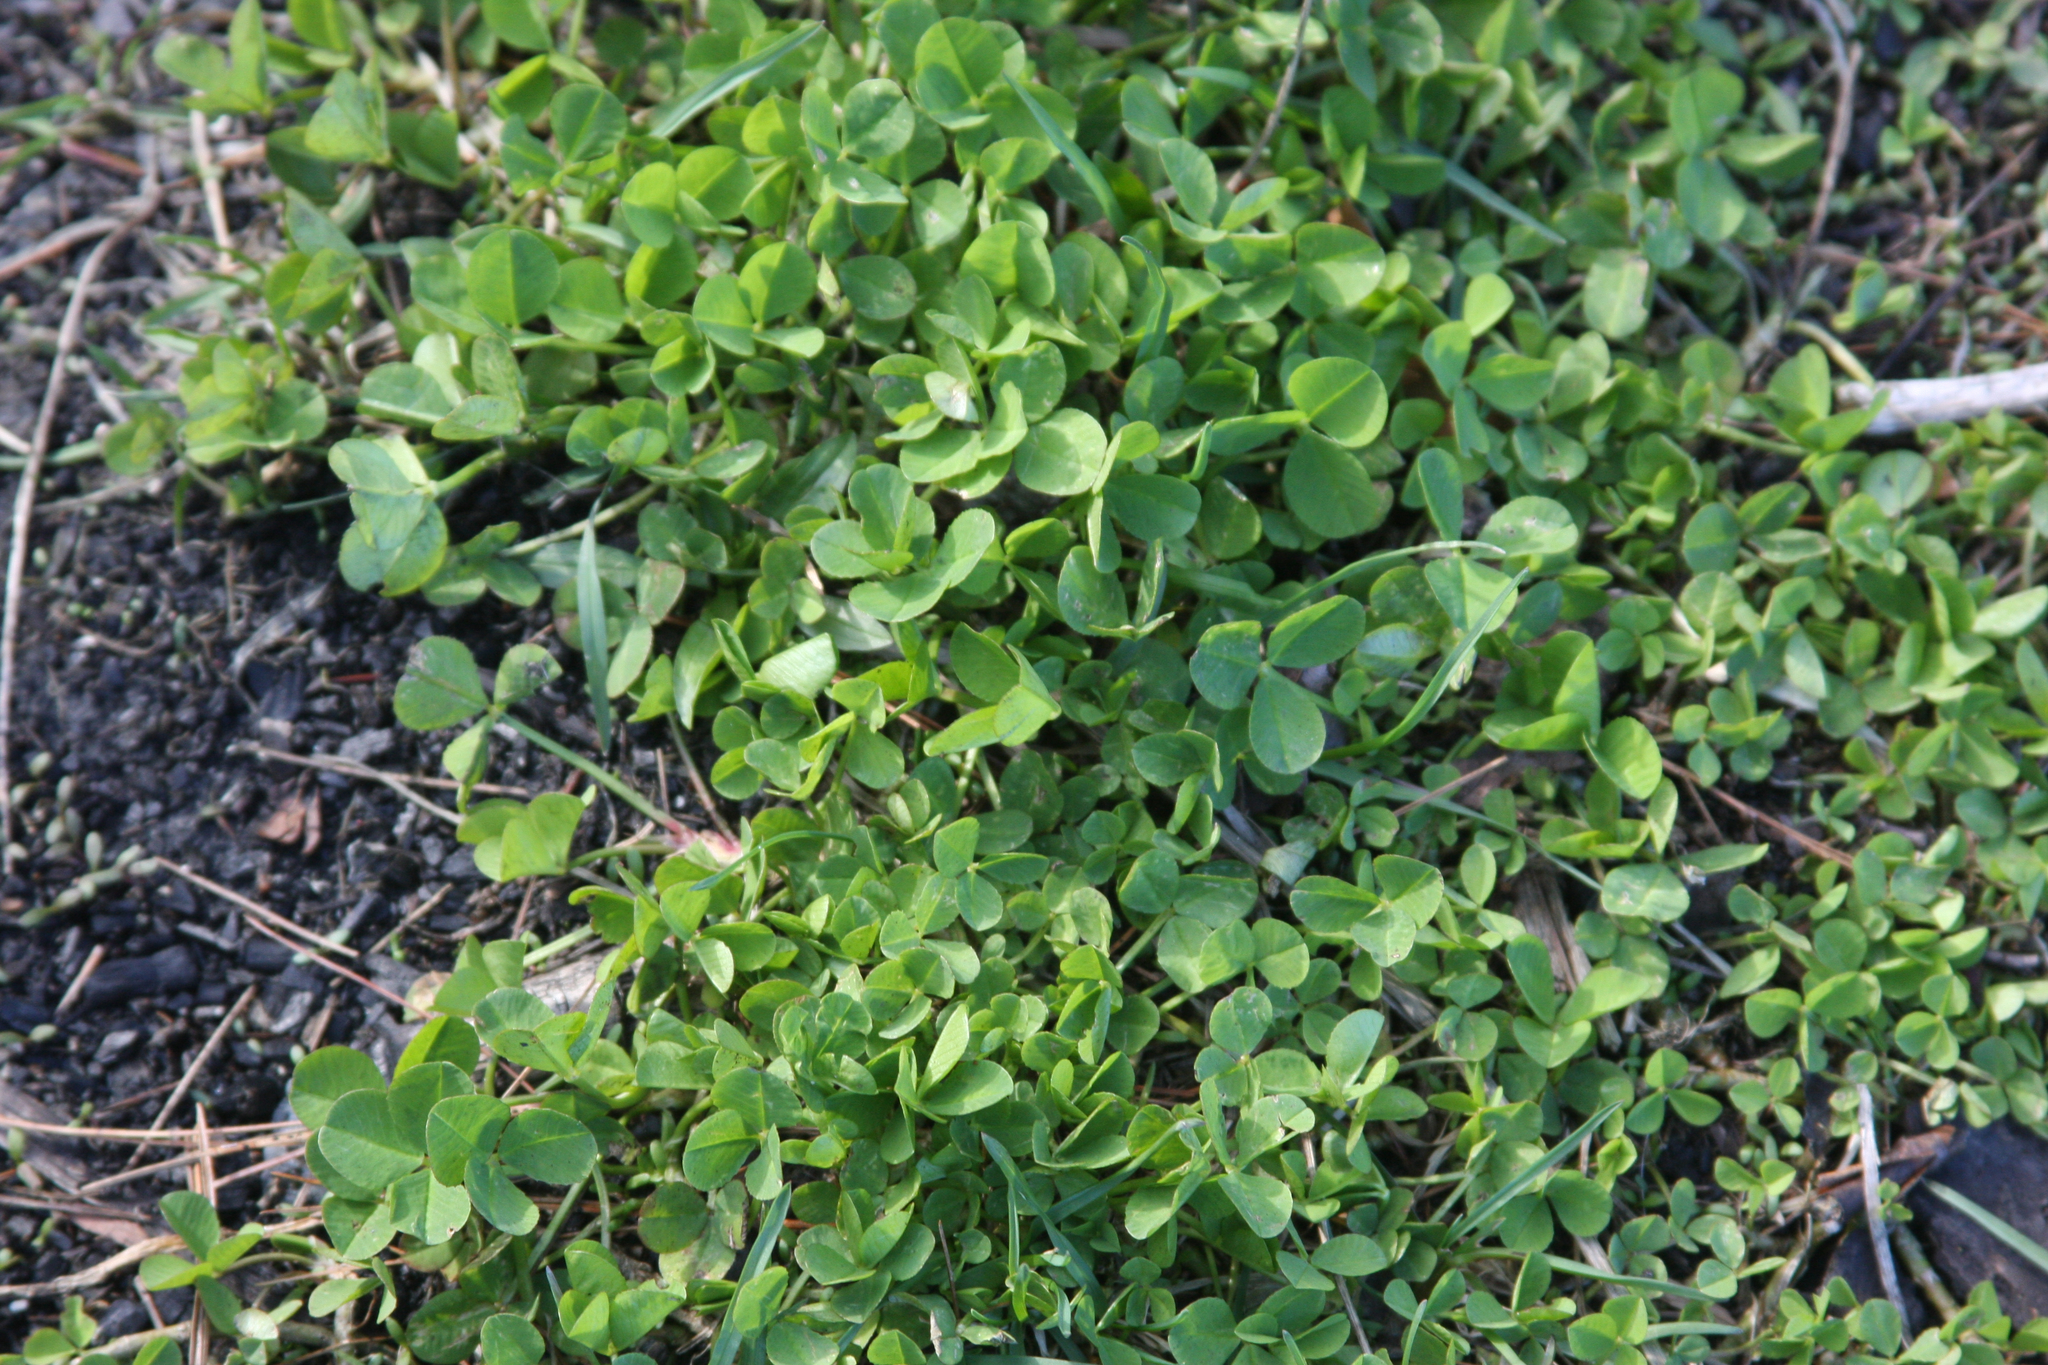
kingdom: Plantae
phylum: Tracheophyta
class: Magnoliopsida
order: Fabales
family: Fabaceae
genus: Trifolium
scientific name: Trifolium repens
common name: White clover
